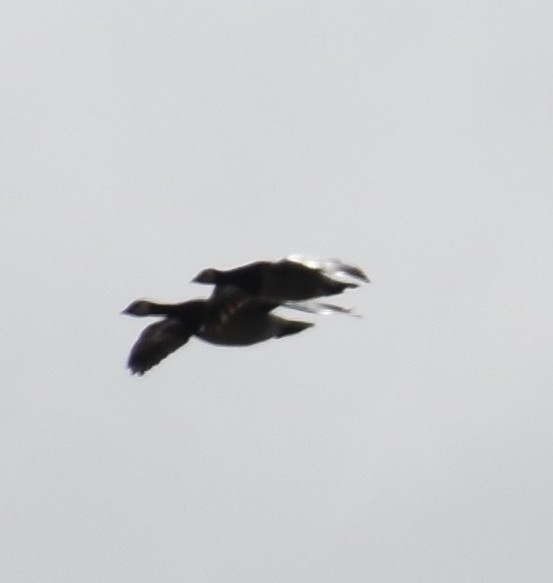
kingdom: Animalia
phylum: Chordata
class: Aves
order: Anseriformes
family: Anatidae
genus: Branta
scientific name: Branta leucopsis
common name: Barnacle goose
